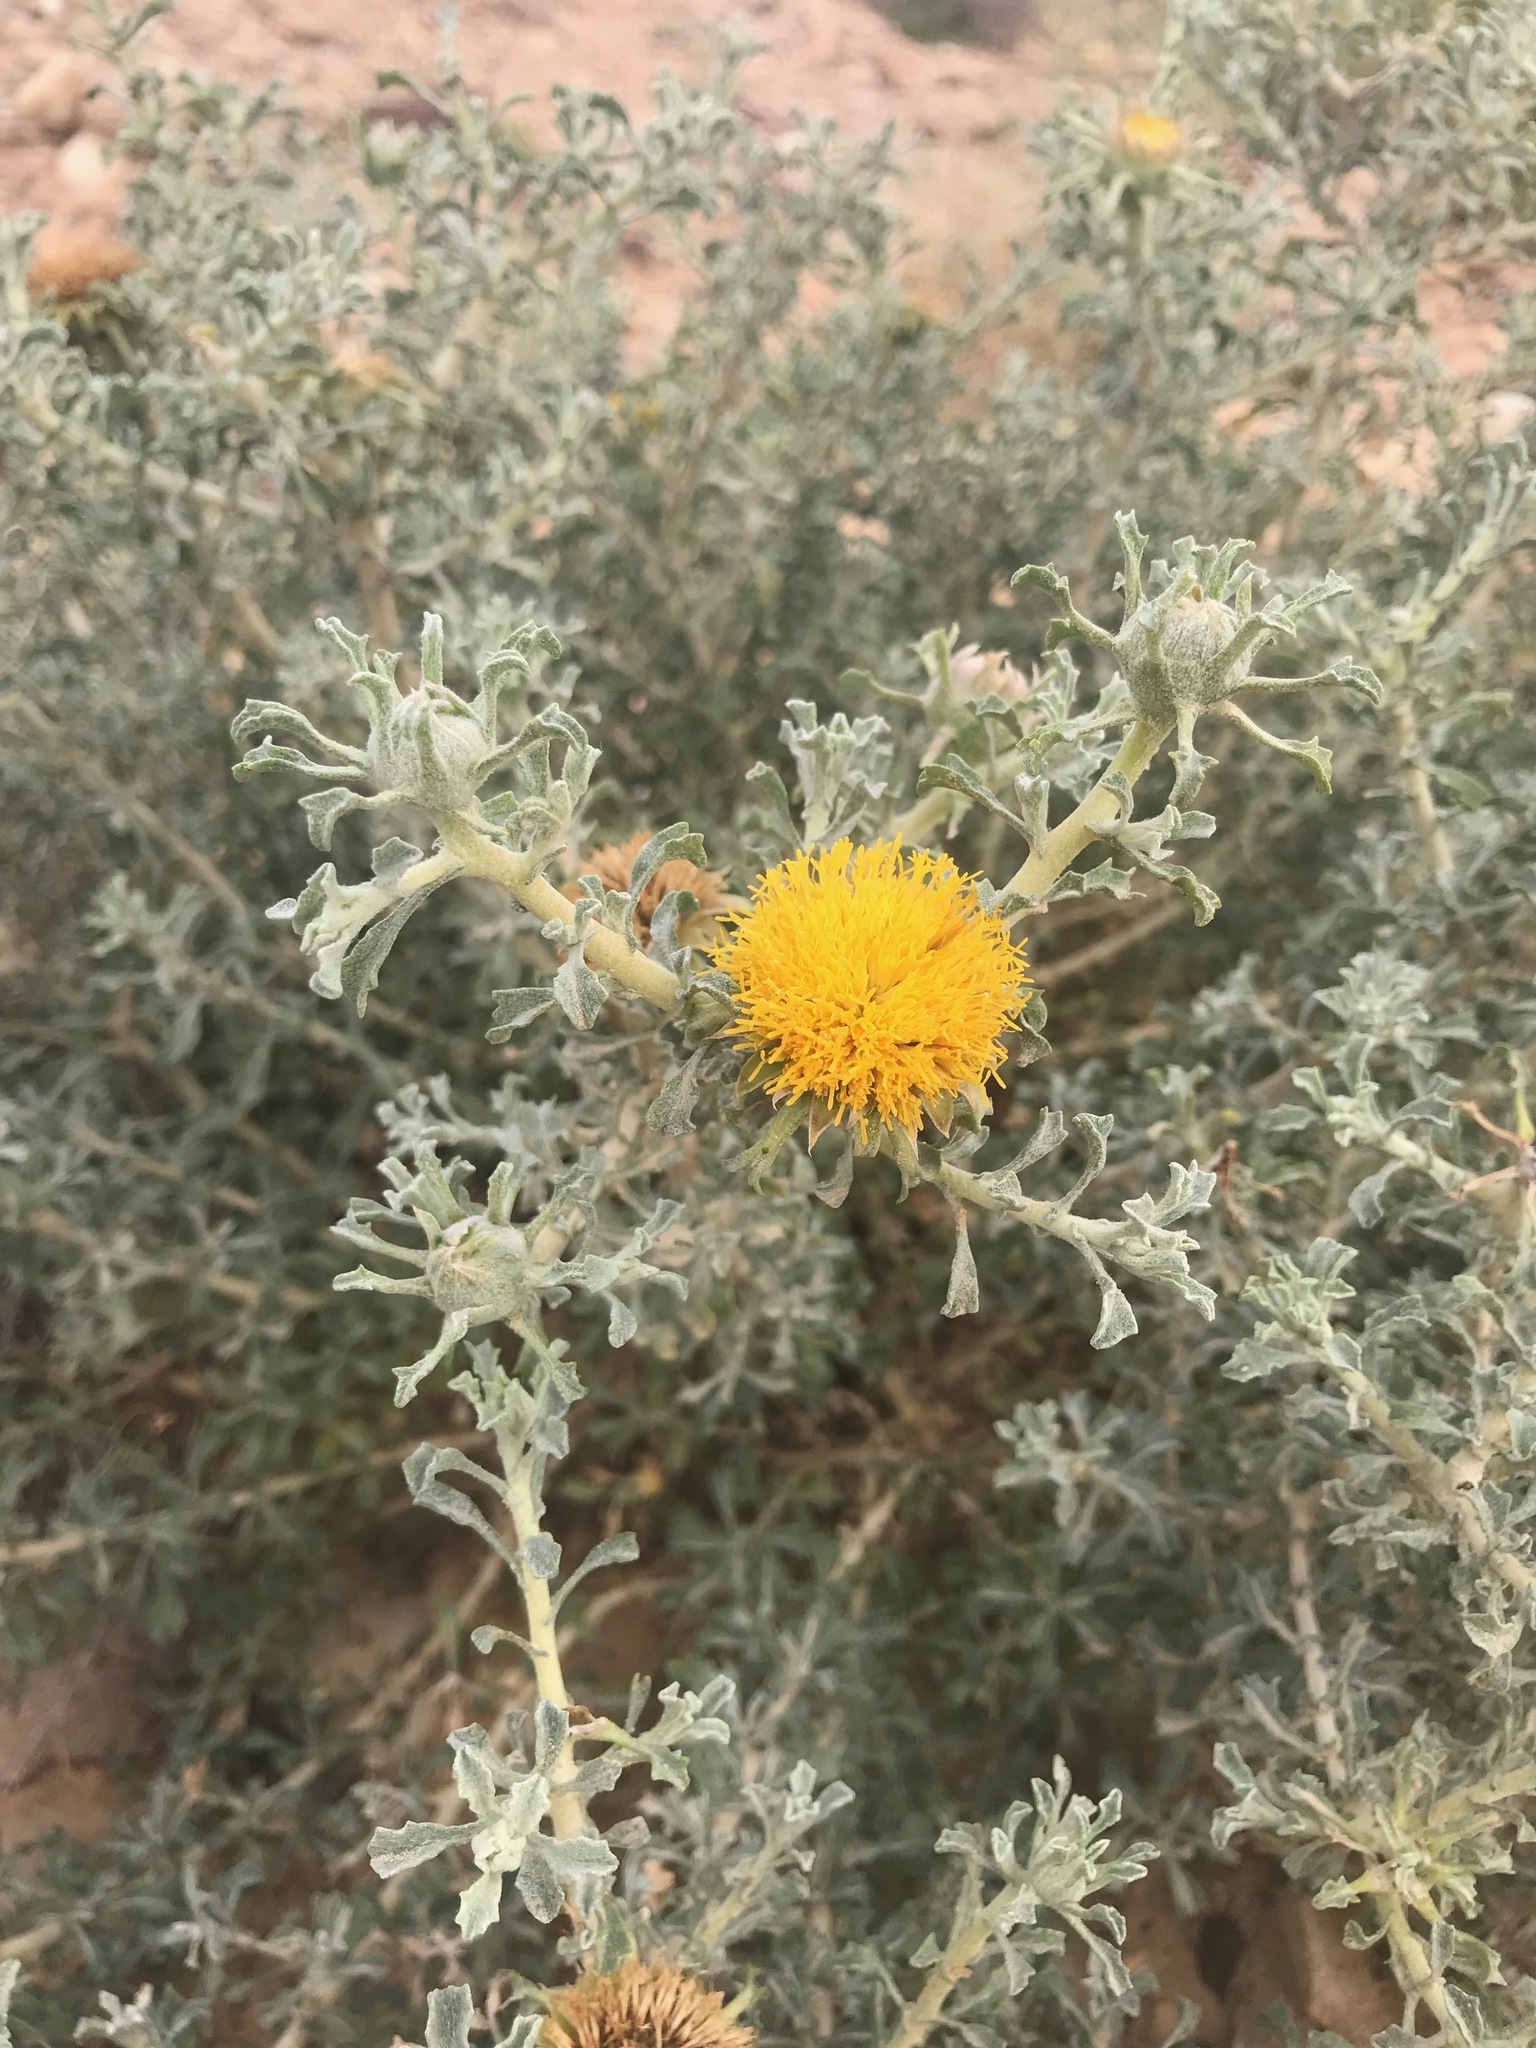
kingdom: Plantae
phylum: Tracheophyta
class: Magnoliopsida
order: Asterales
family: Asteraceae
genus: Anvillea
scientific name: Anvillea garcinii
